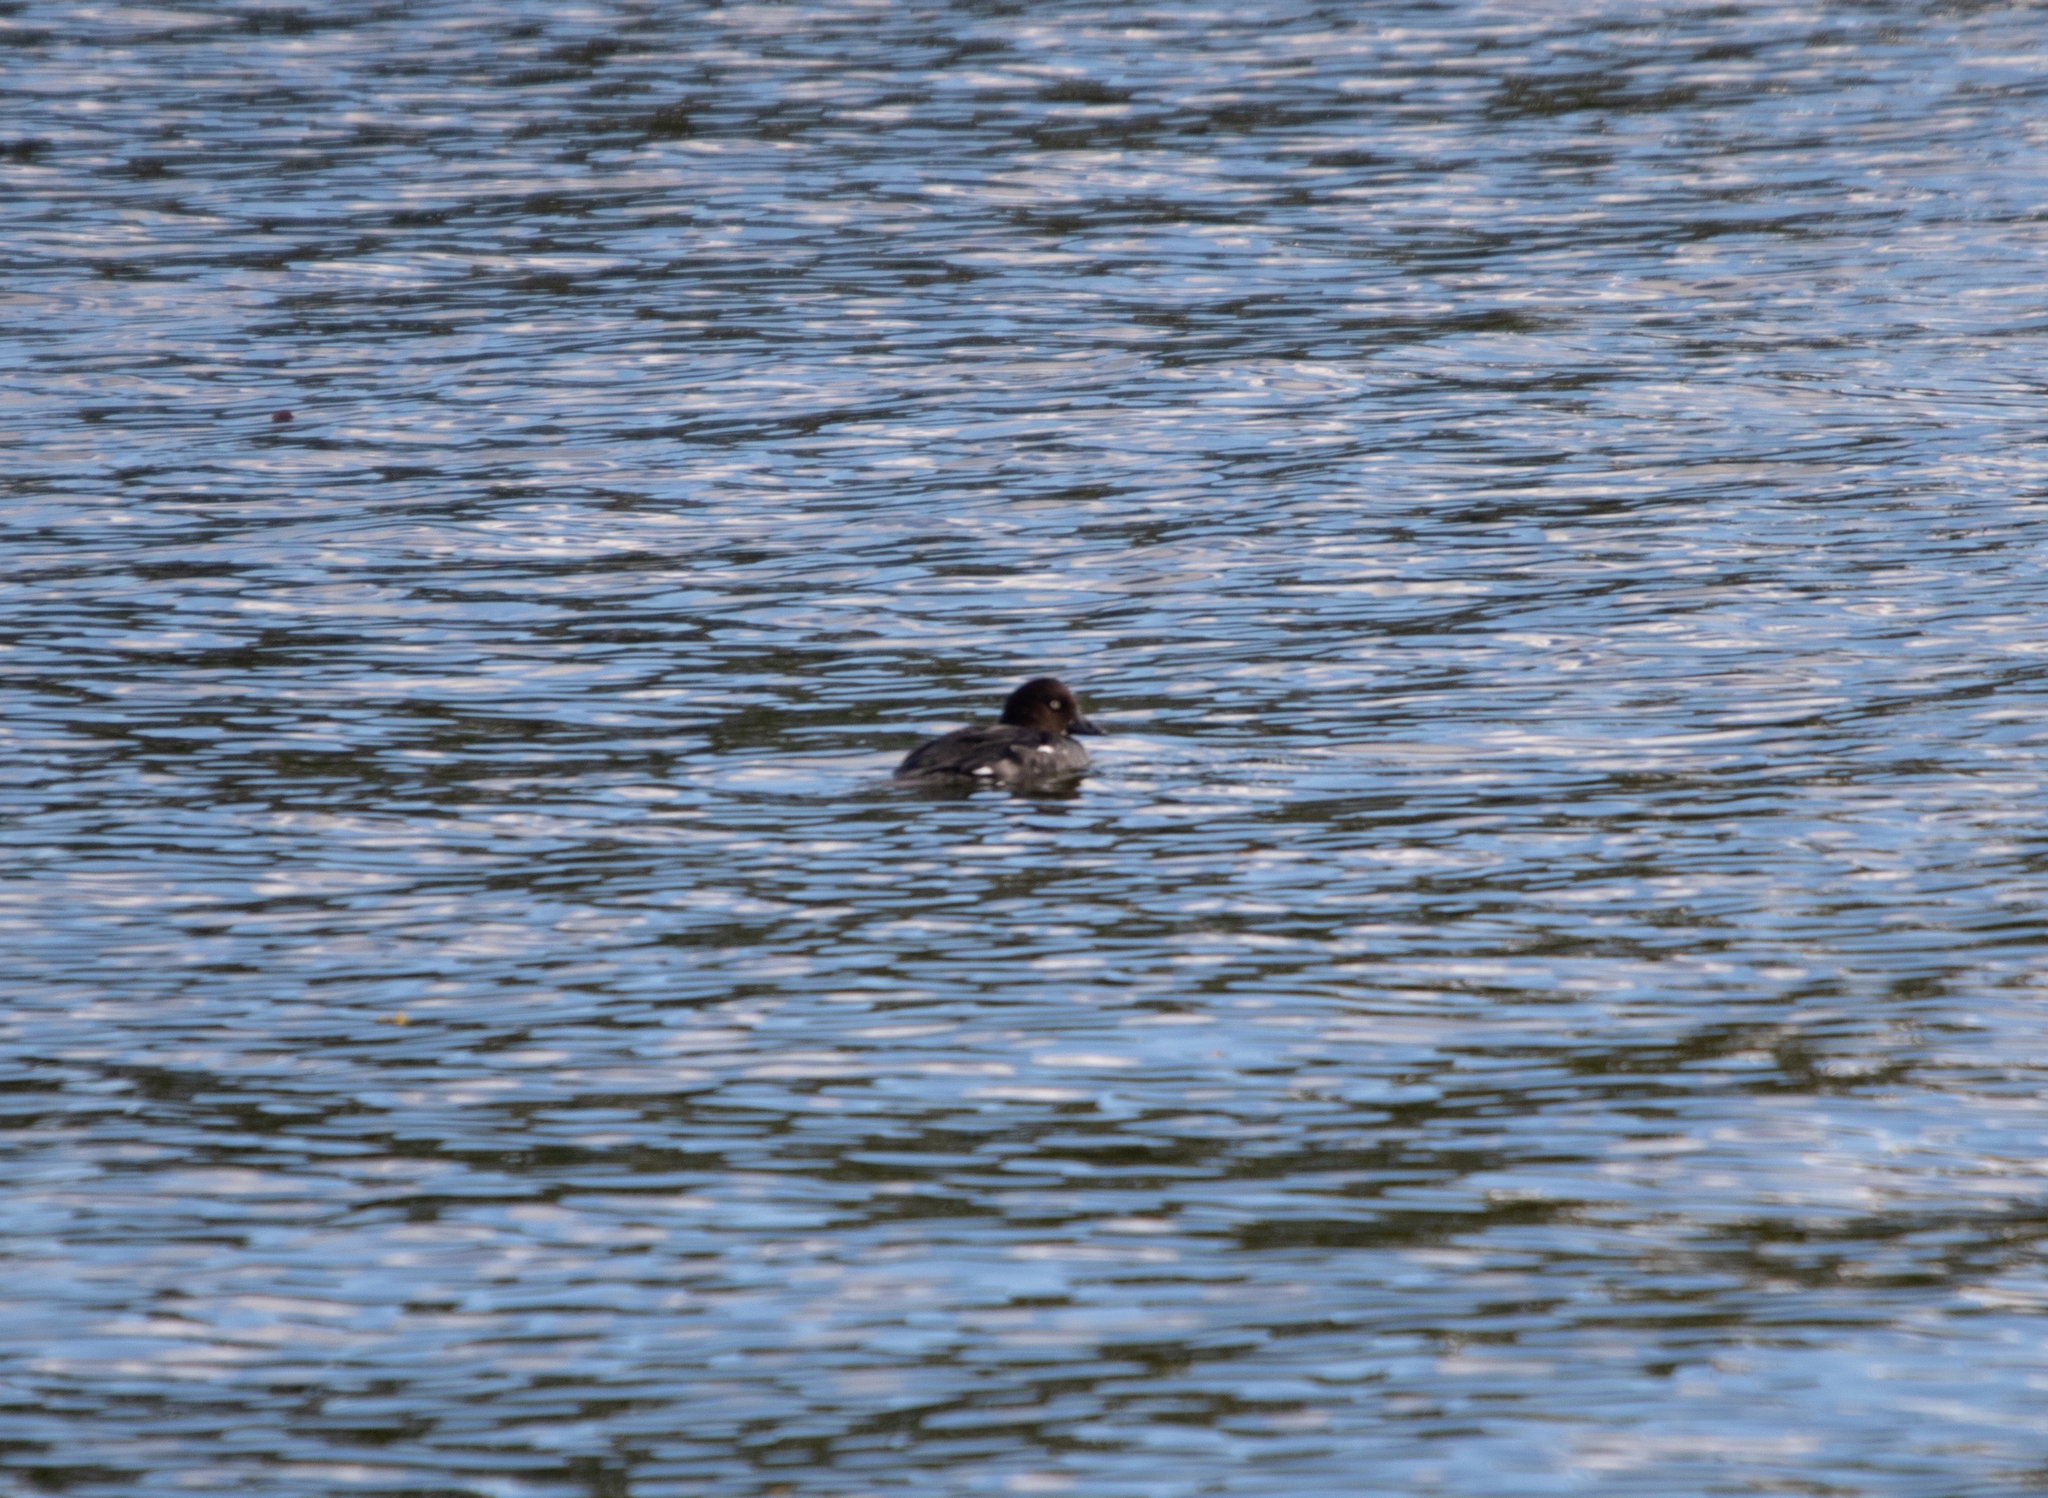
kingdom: Animalia
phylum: Chordata
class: Aves
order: Anseriformes
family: Anatidae
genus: Bucephala
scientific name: Bucephala clangula
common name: Common goldeneye
